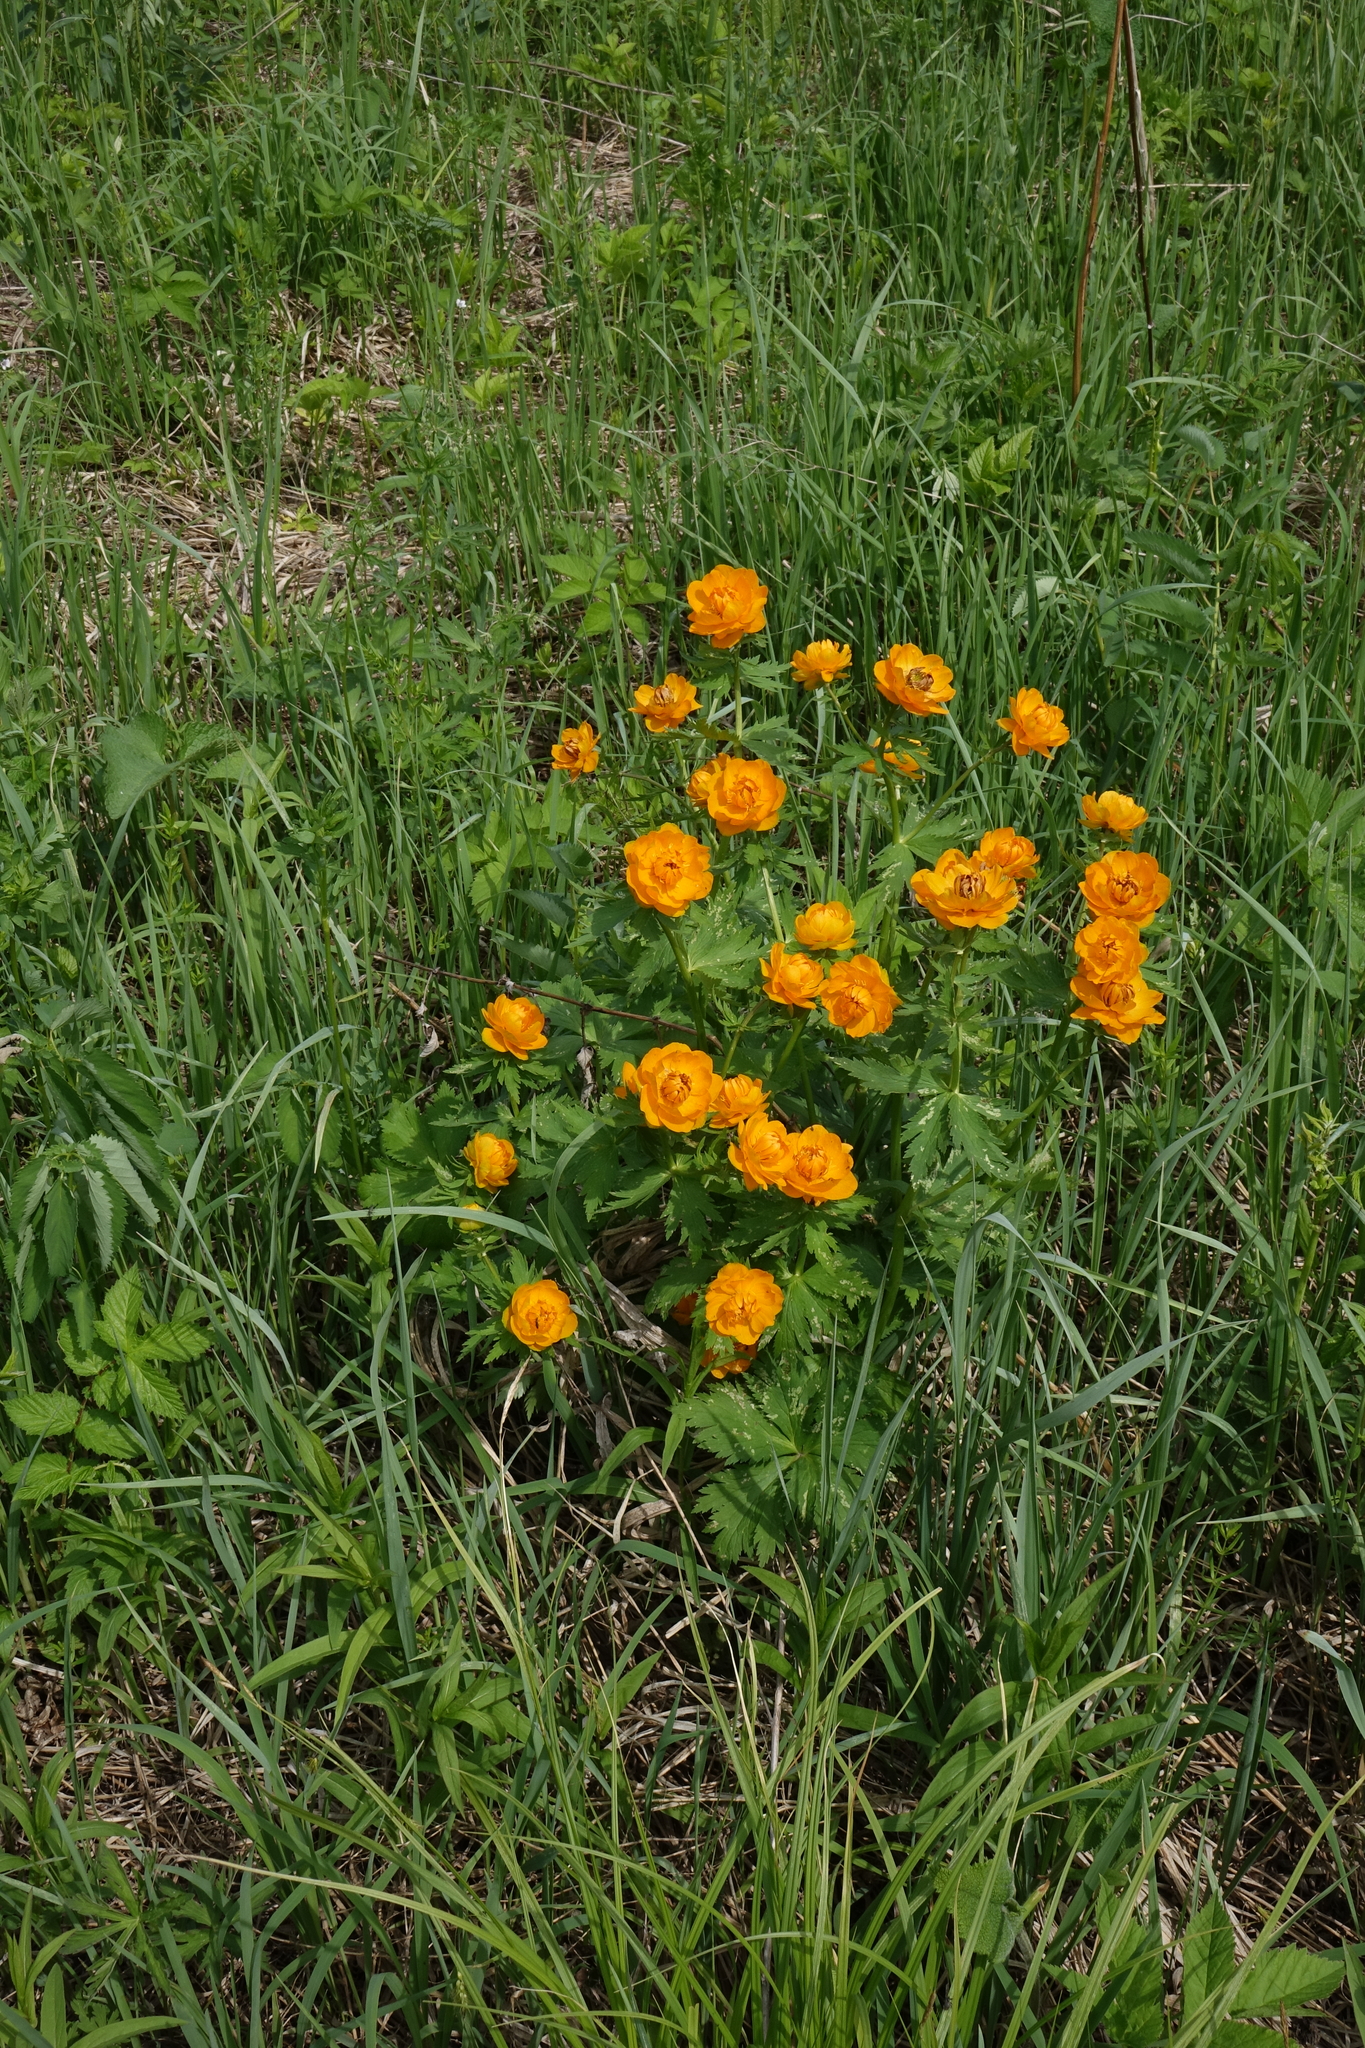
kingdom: Plantae
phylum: Tracheophyta
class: Magnoliopsida
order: Ranunculales
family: Ranunculaceae
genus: Trollius
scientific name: Trollius asiaticus
